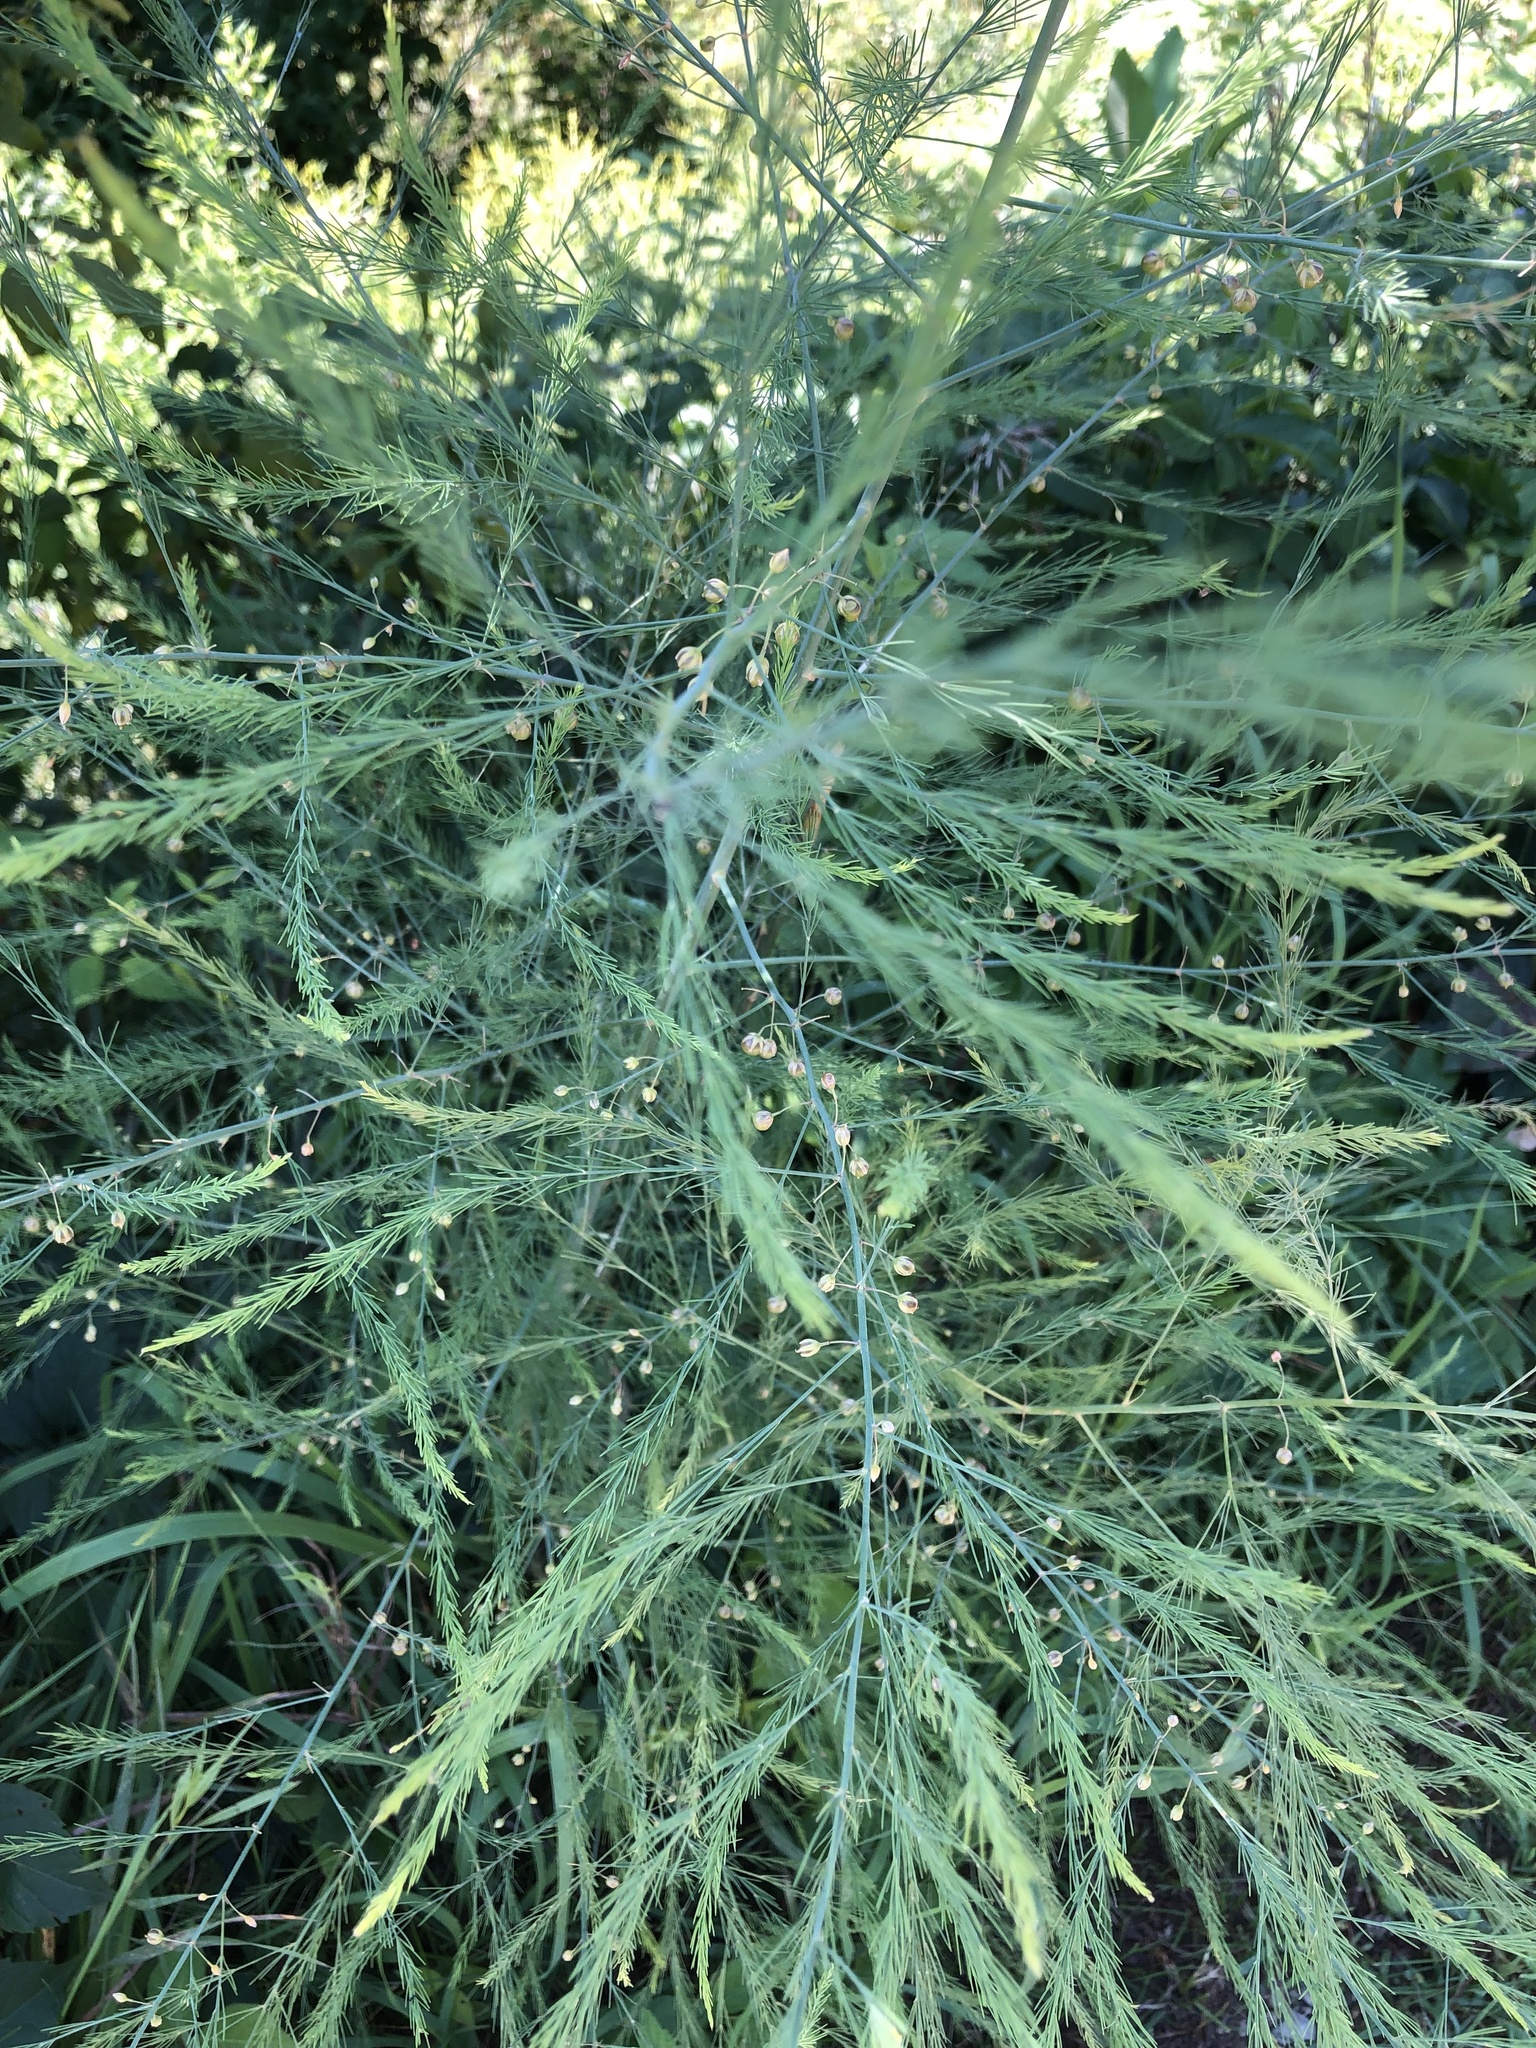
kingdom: Plantae
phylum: Tracheophyta
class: Liliopsida
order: Asparagales
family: Asparagaceae
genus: Asparagus
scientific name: Asparagus officinalis
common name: Garden asparagus
